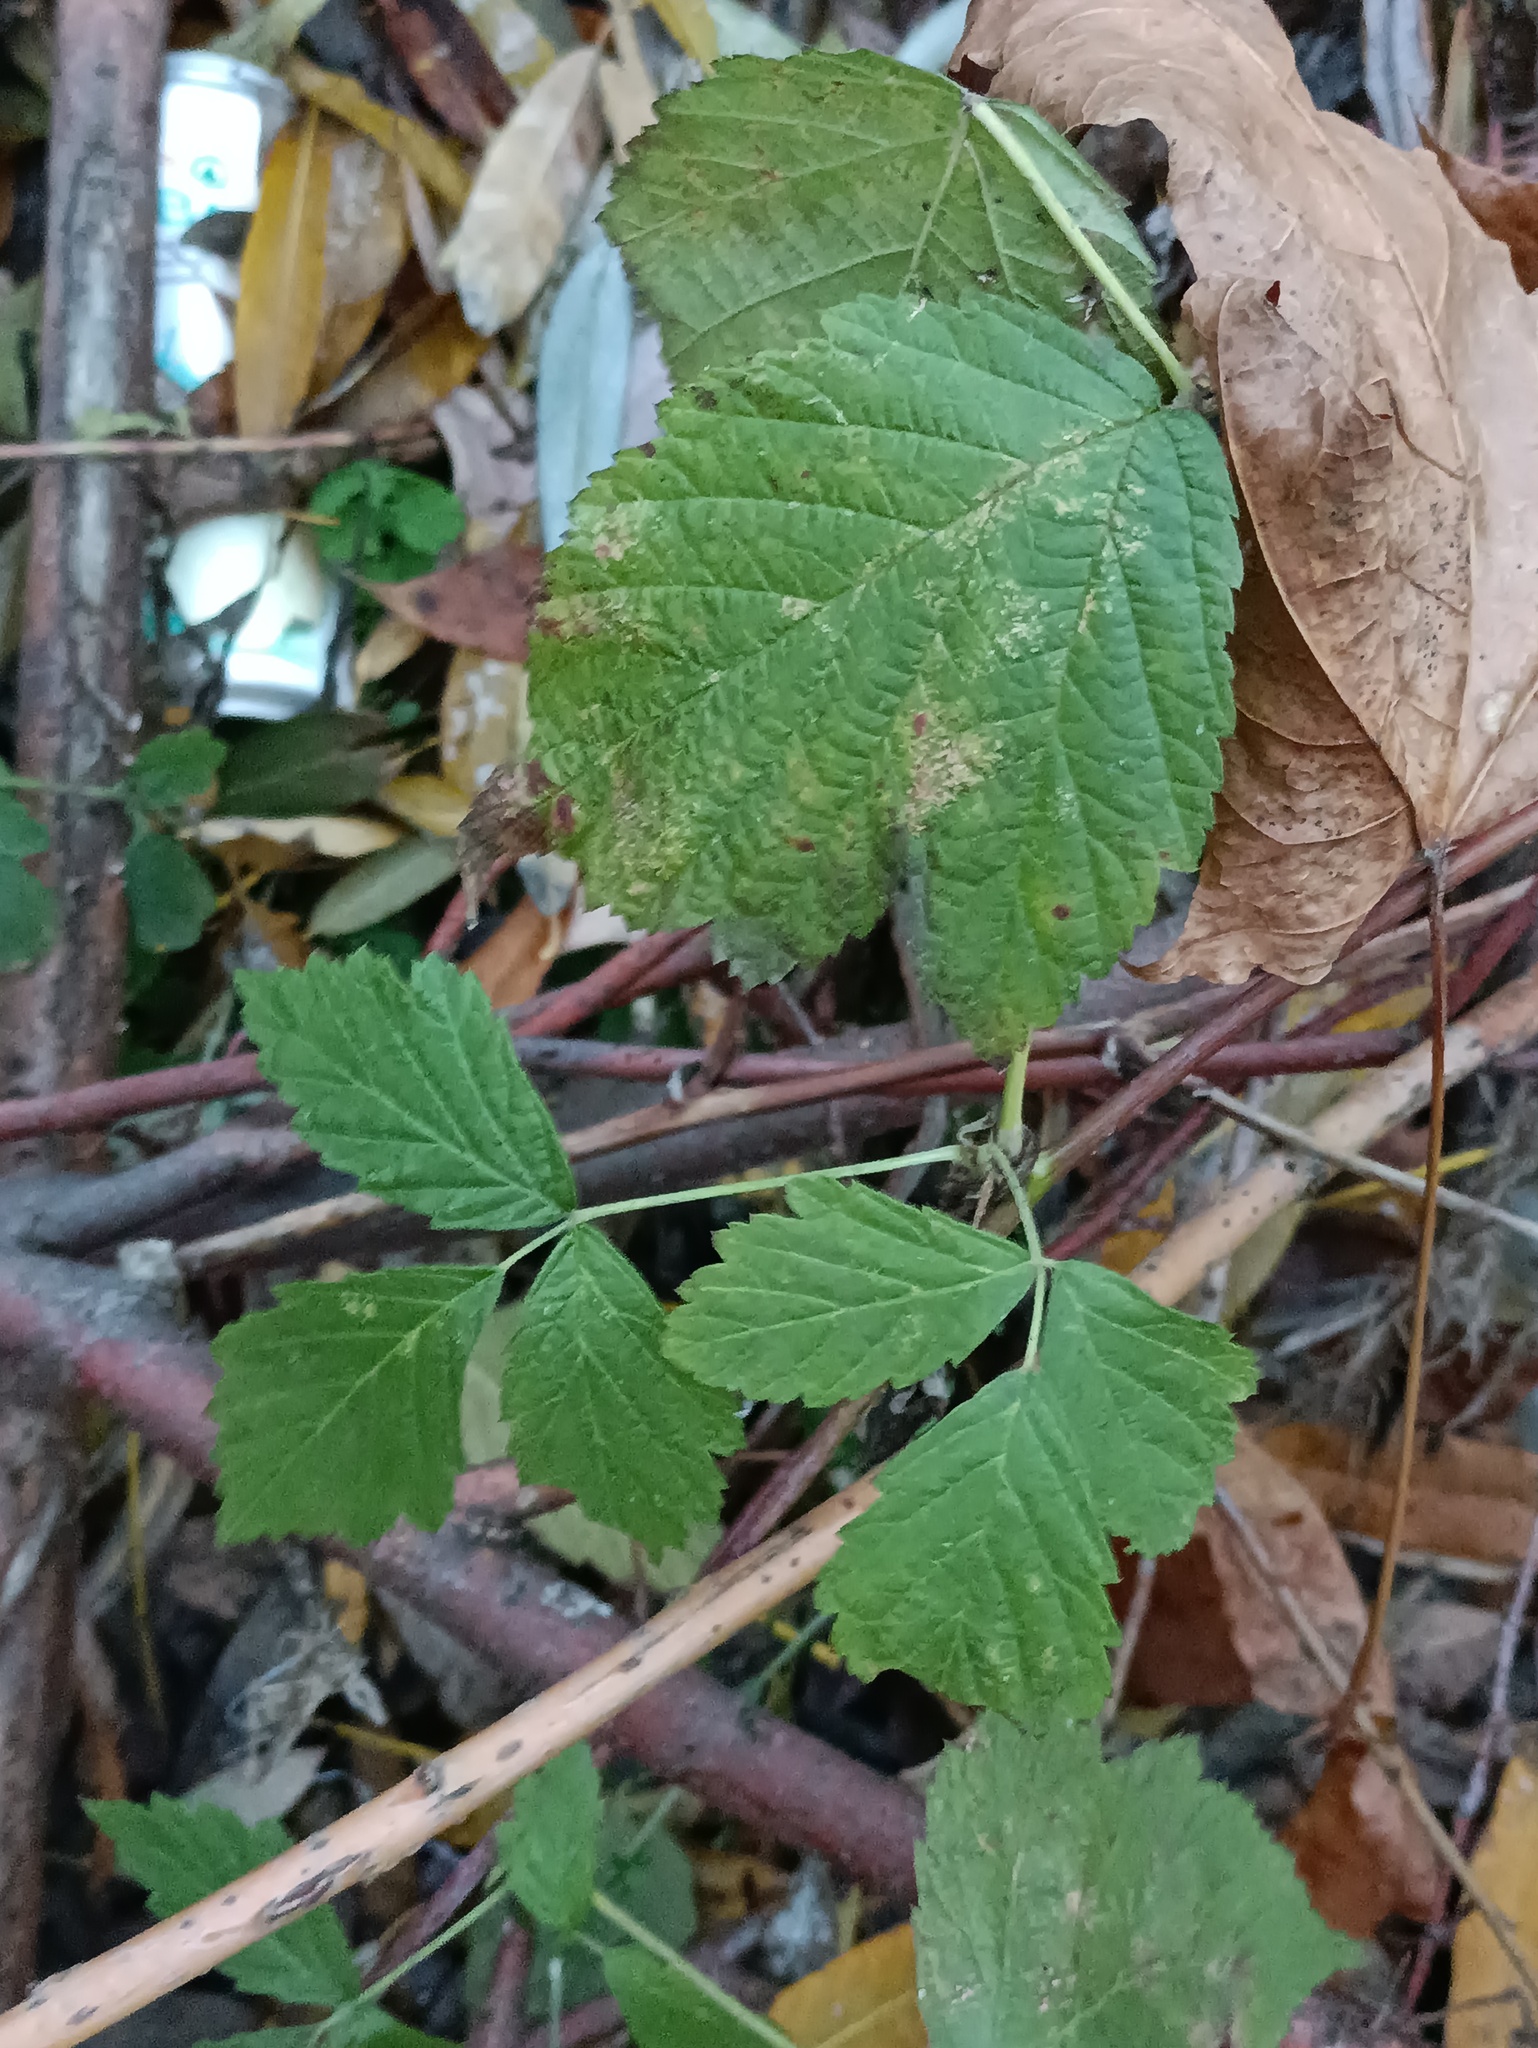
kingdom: Plantae
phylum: Tracheophyta
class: Magnoliopsida
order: Rosales
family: Rosaceae
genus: Rubus
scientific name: Rubus caesius
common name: Dewberry
